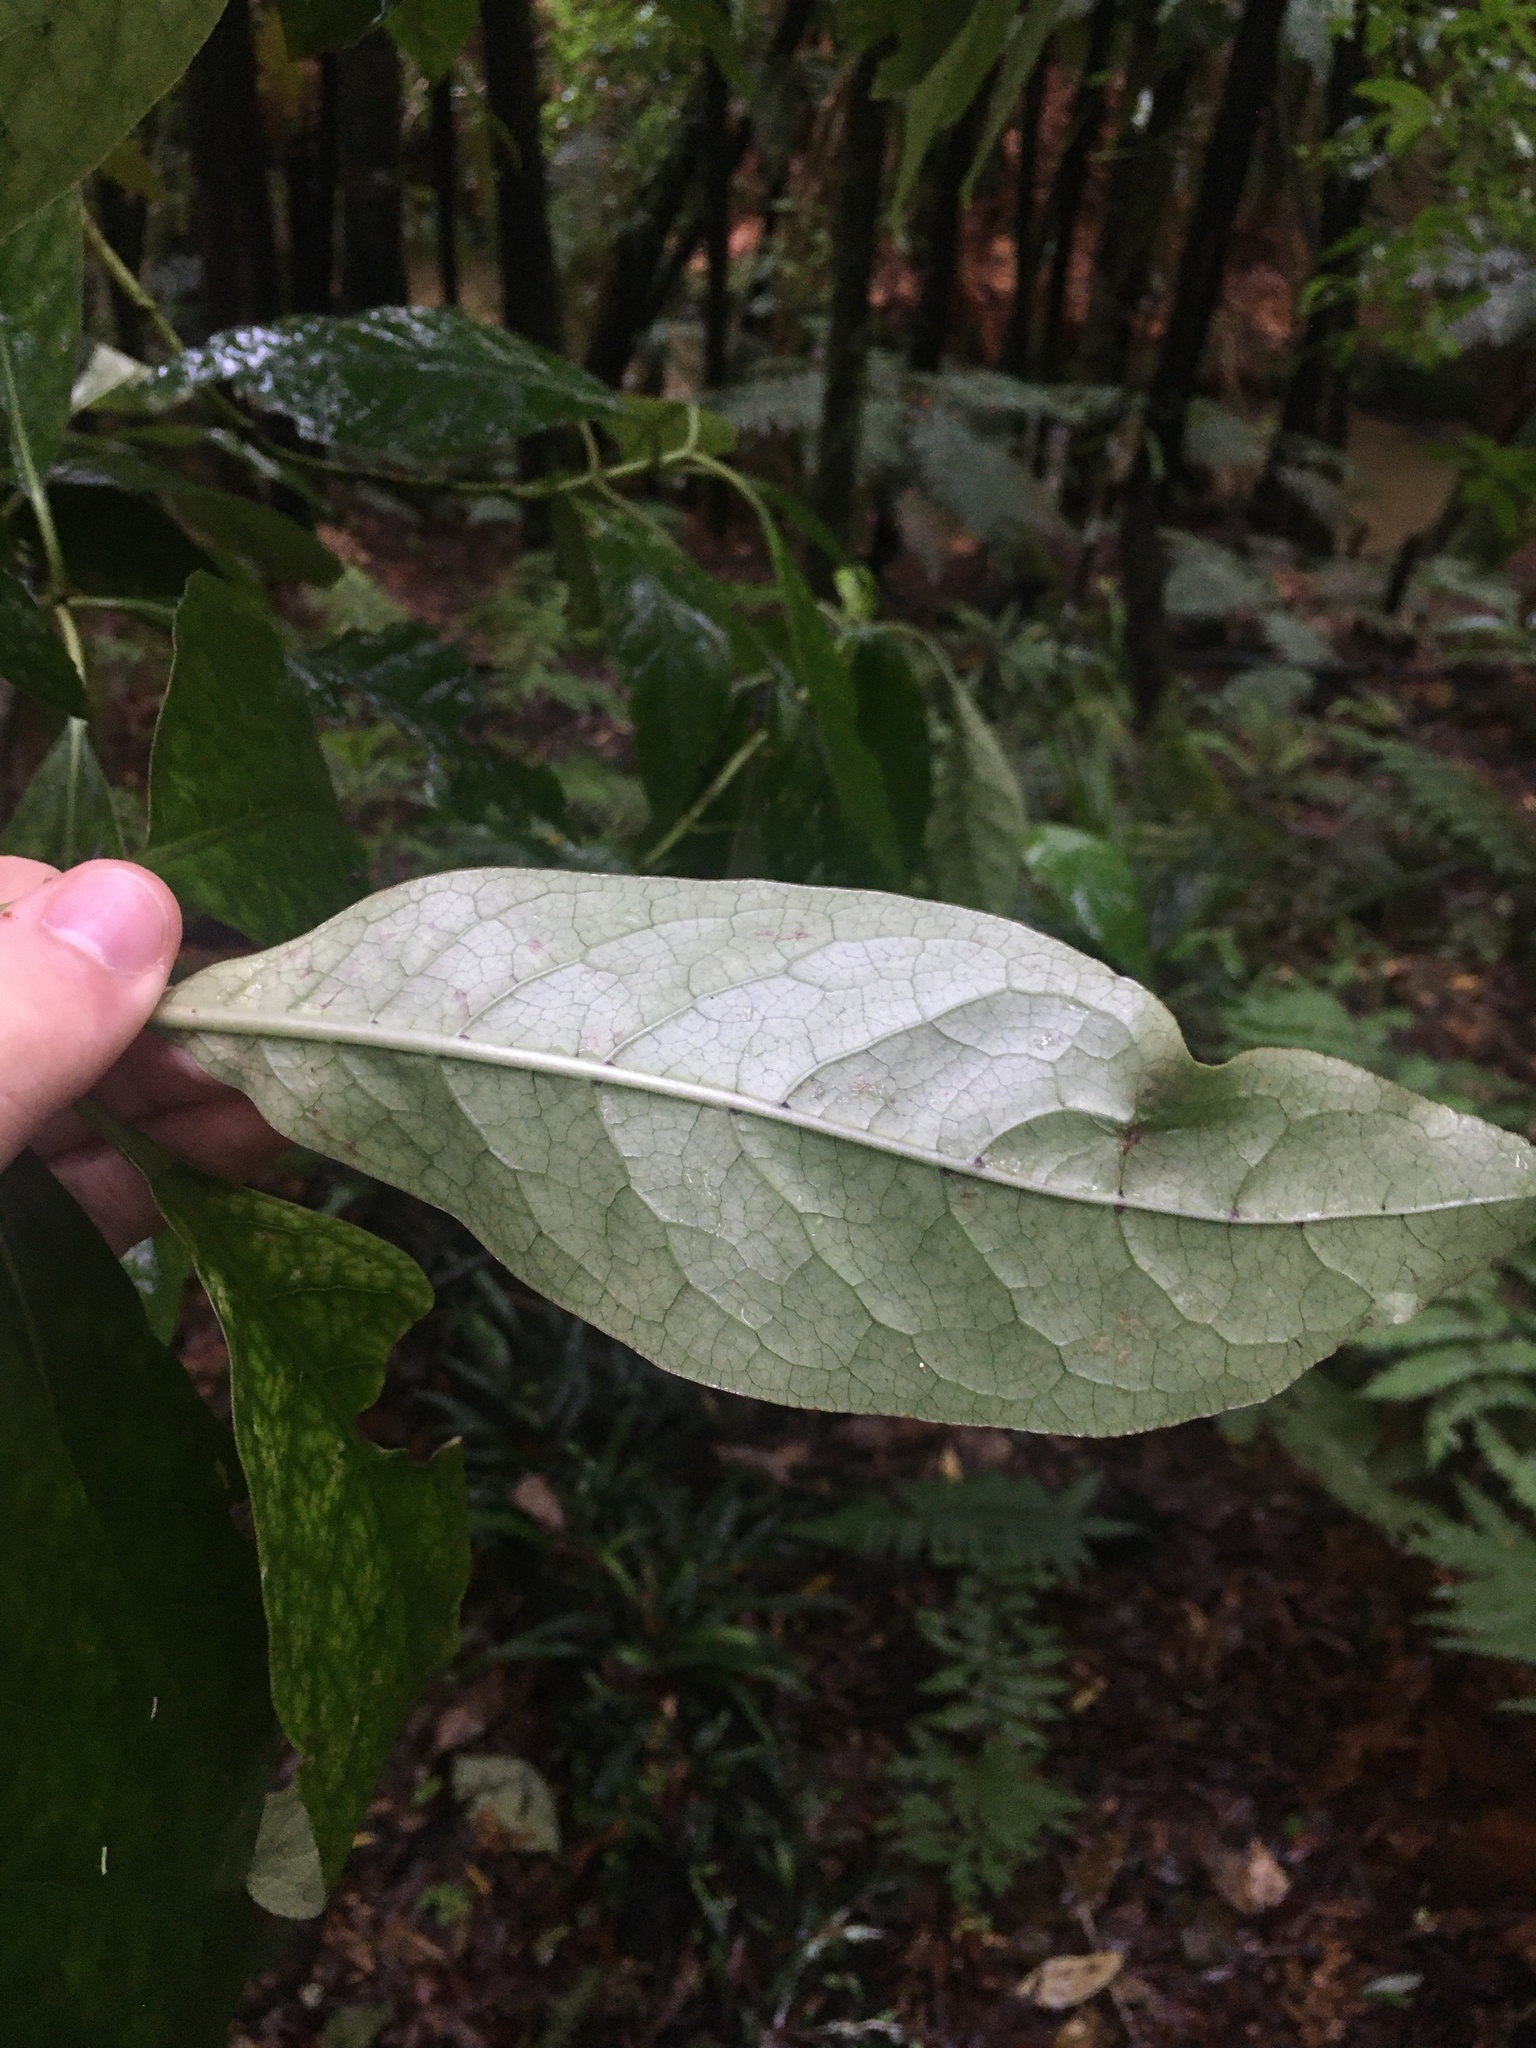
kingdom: Plantae
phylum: Tracheophyta
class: Magnoliopsida
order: Gentianales
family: Rubiaceae
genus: Coprosma
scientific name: Coprosma autumnalis
